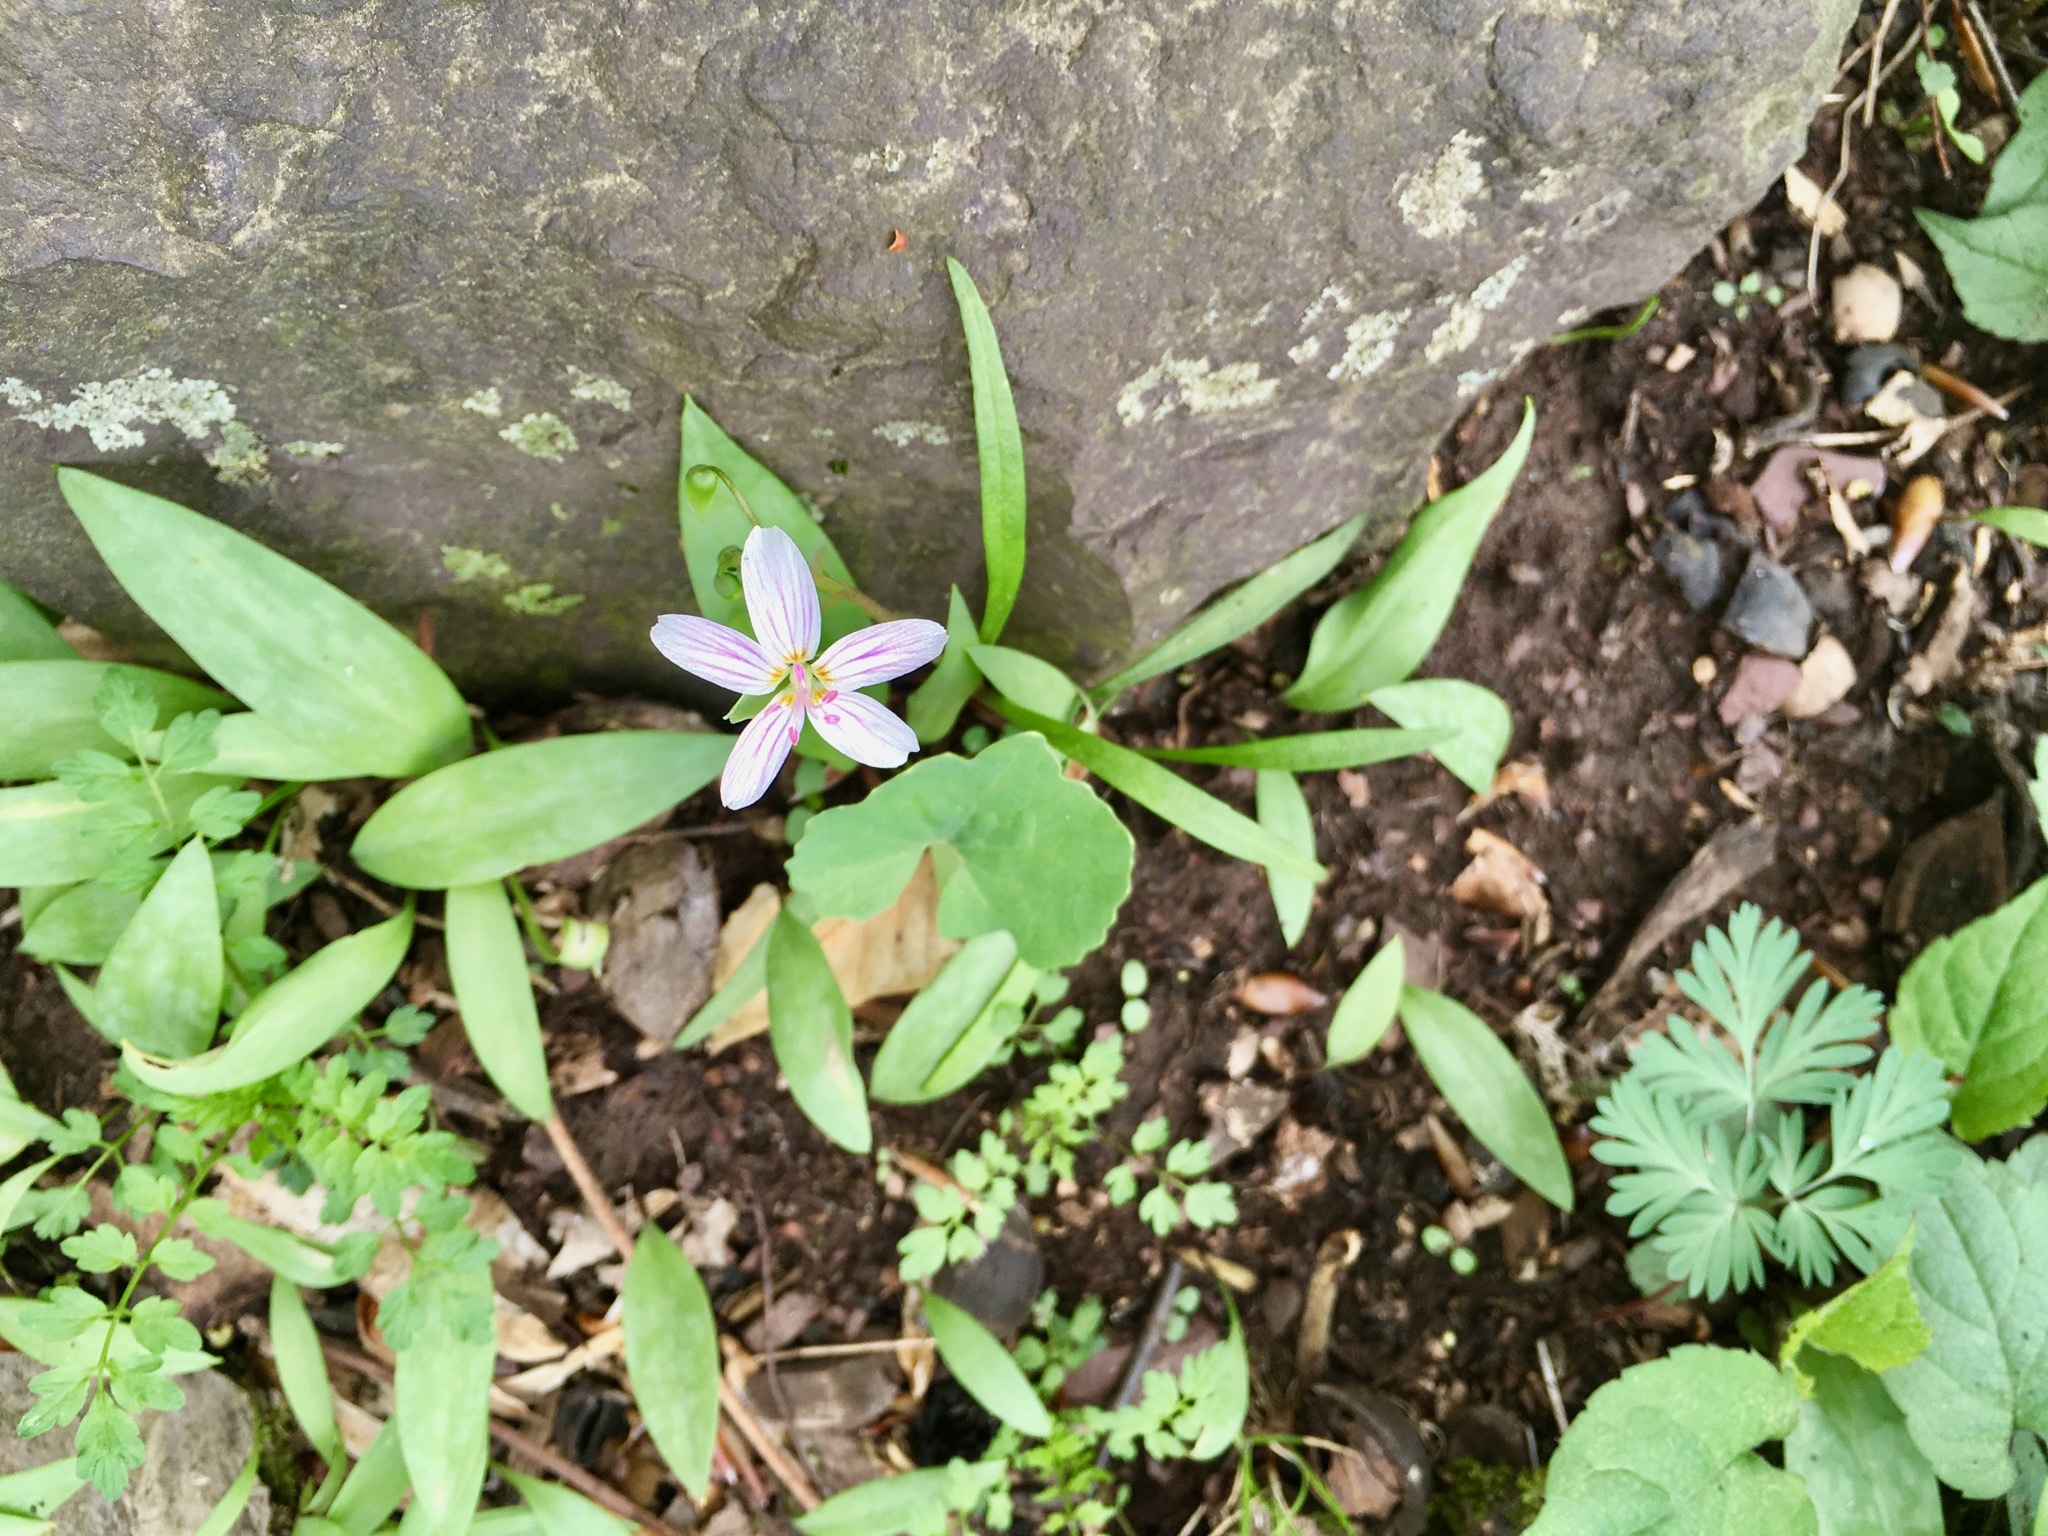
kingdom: Plantae
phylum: Tracheophyta
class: Magnoliopsida
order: Caryophyllales
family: Montiaceae
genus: Claytonia
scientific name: Claytonia virginica
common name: Virginia springbeauty
